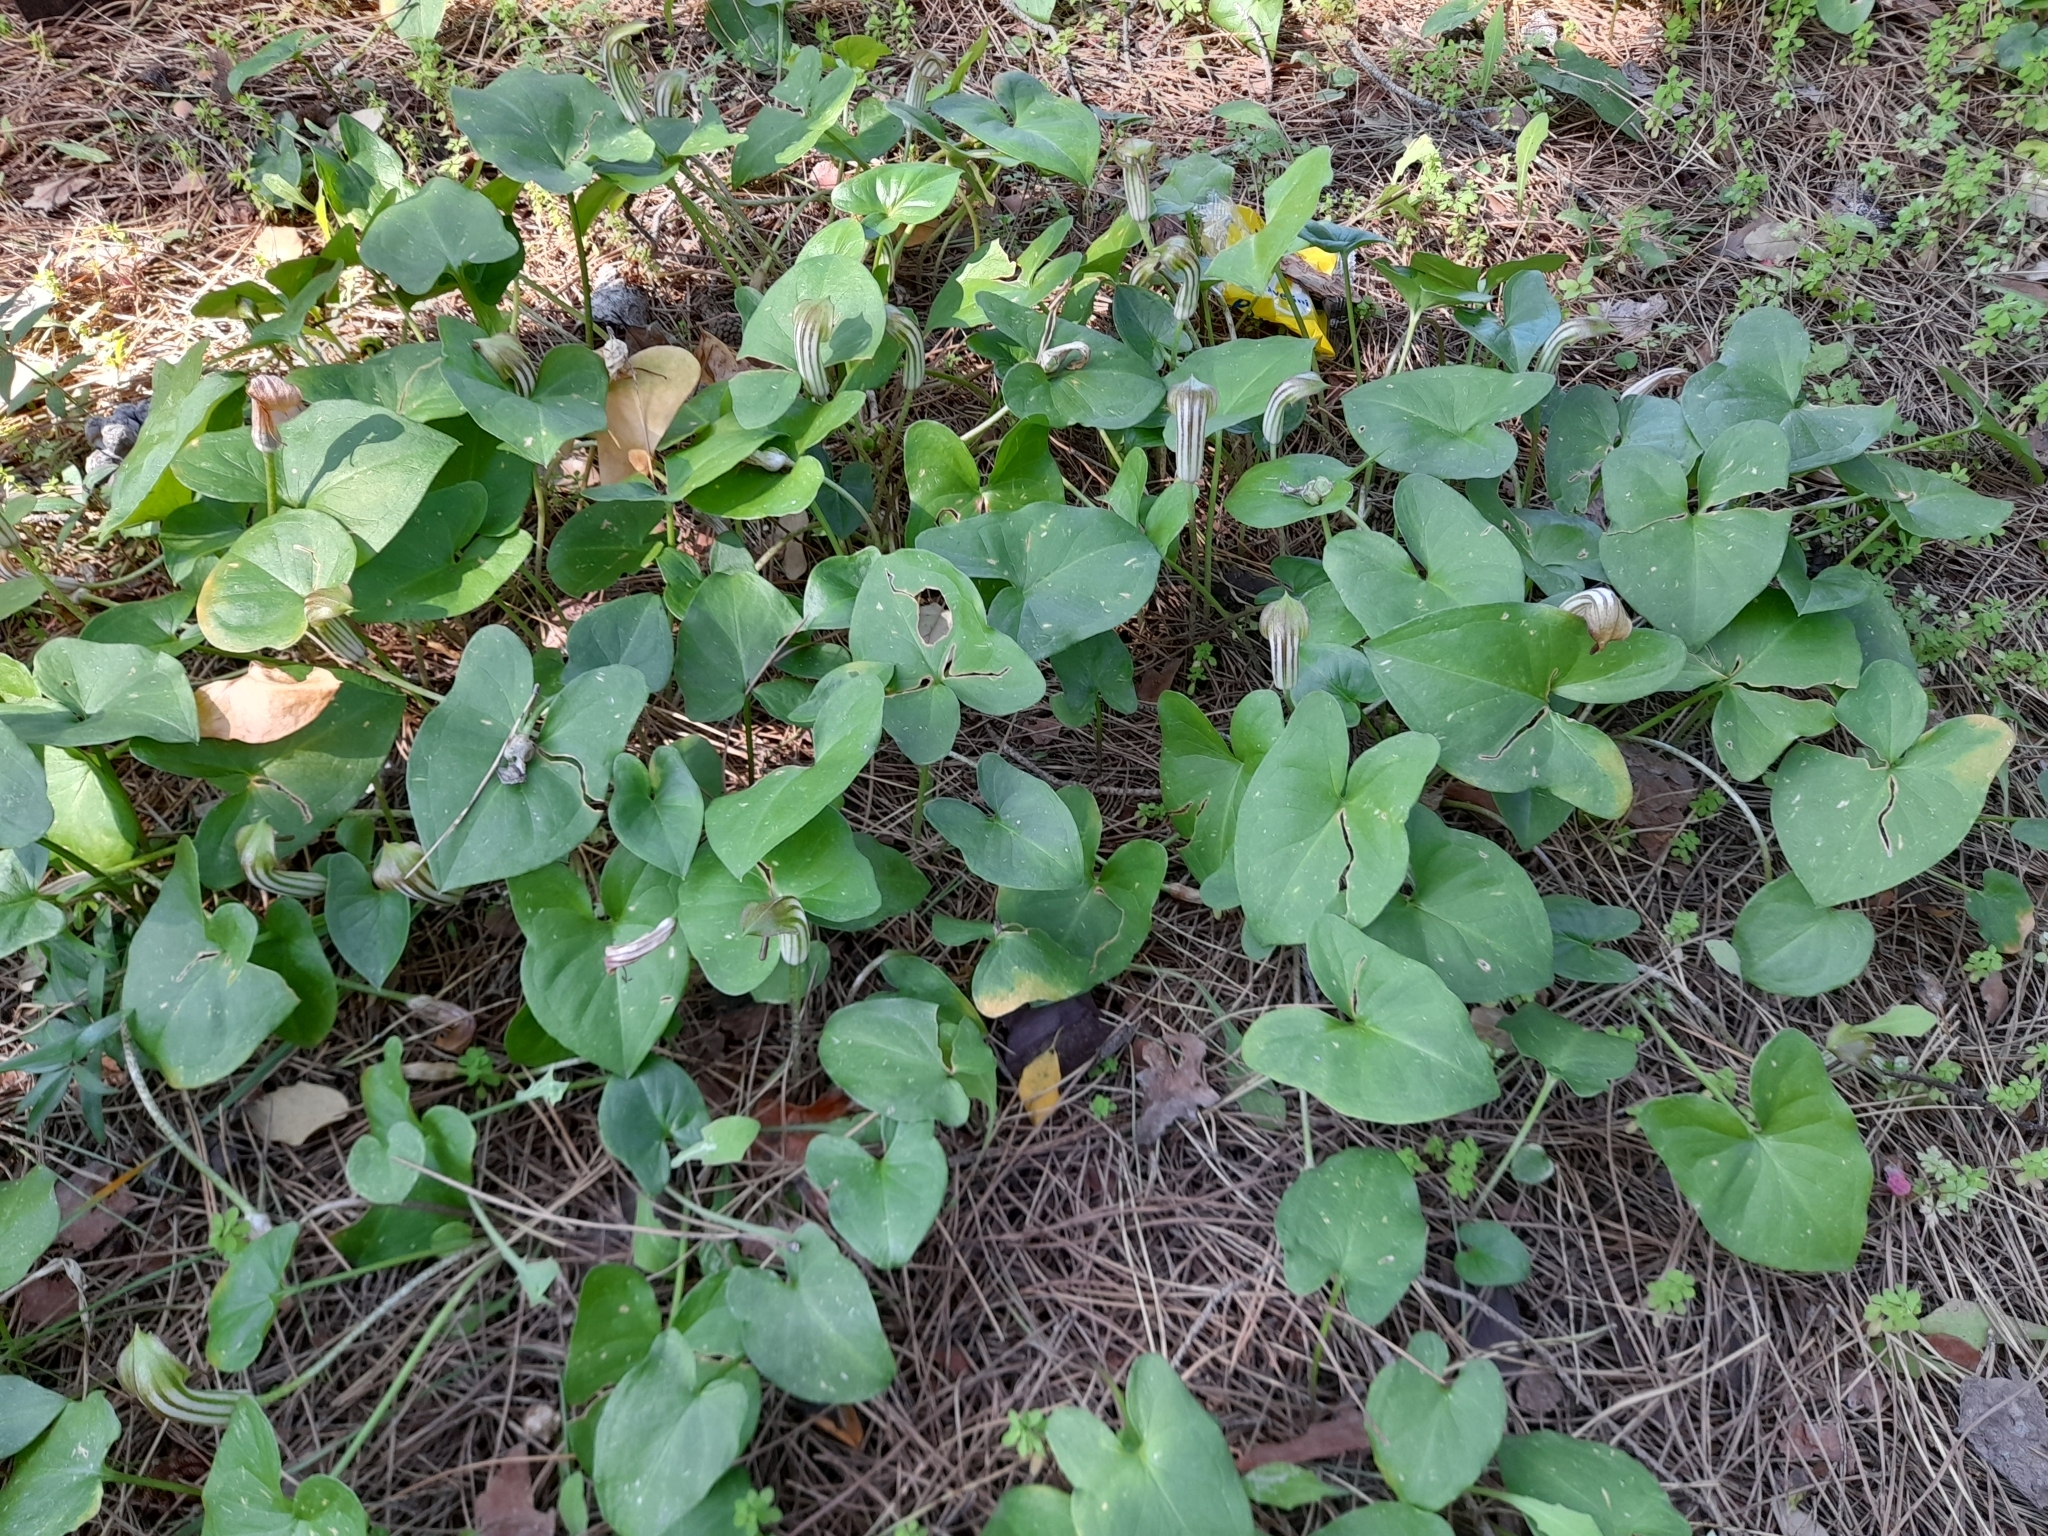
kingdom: Plantae
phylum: Tracheophyta
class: Liliopsida
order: Alismatales
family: Araceae
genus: Arisarum
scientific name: Arisarum vulgare
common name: Common arisarum
